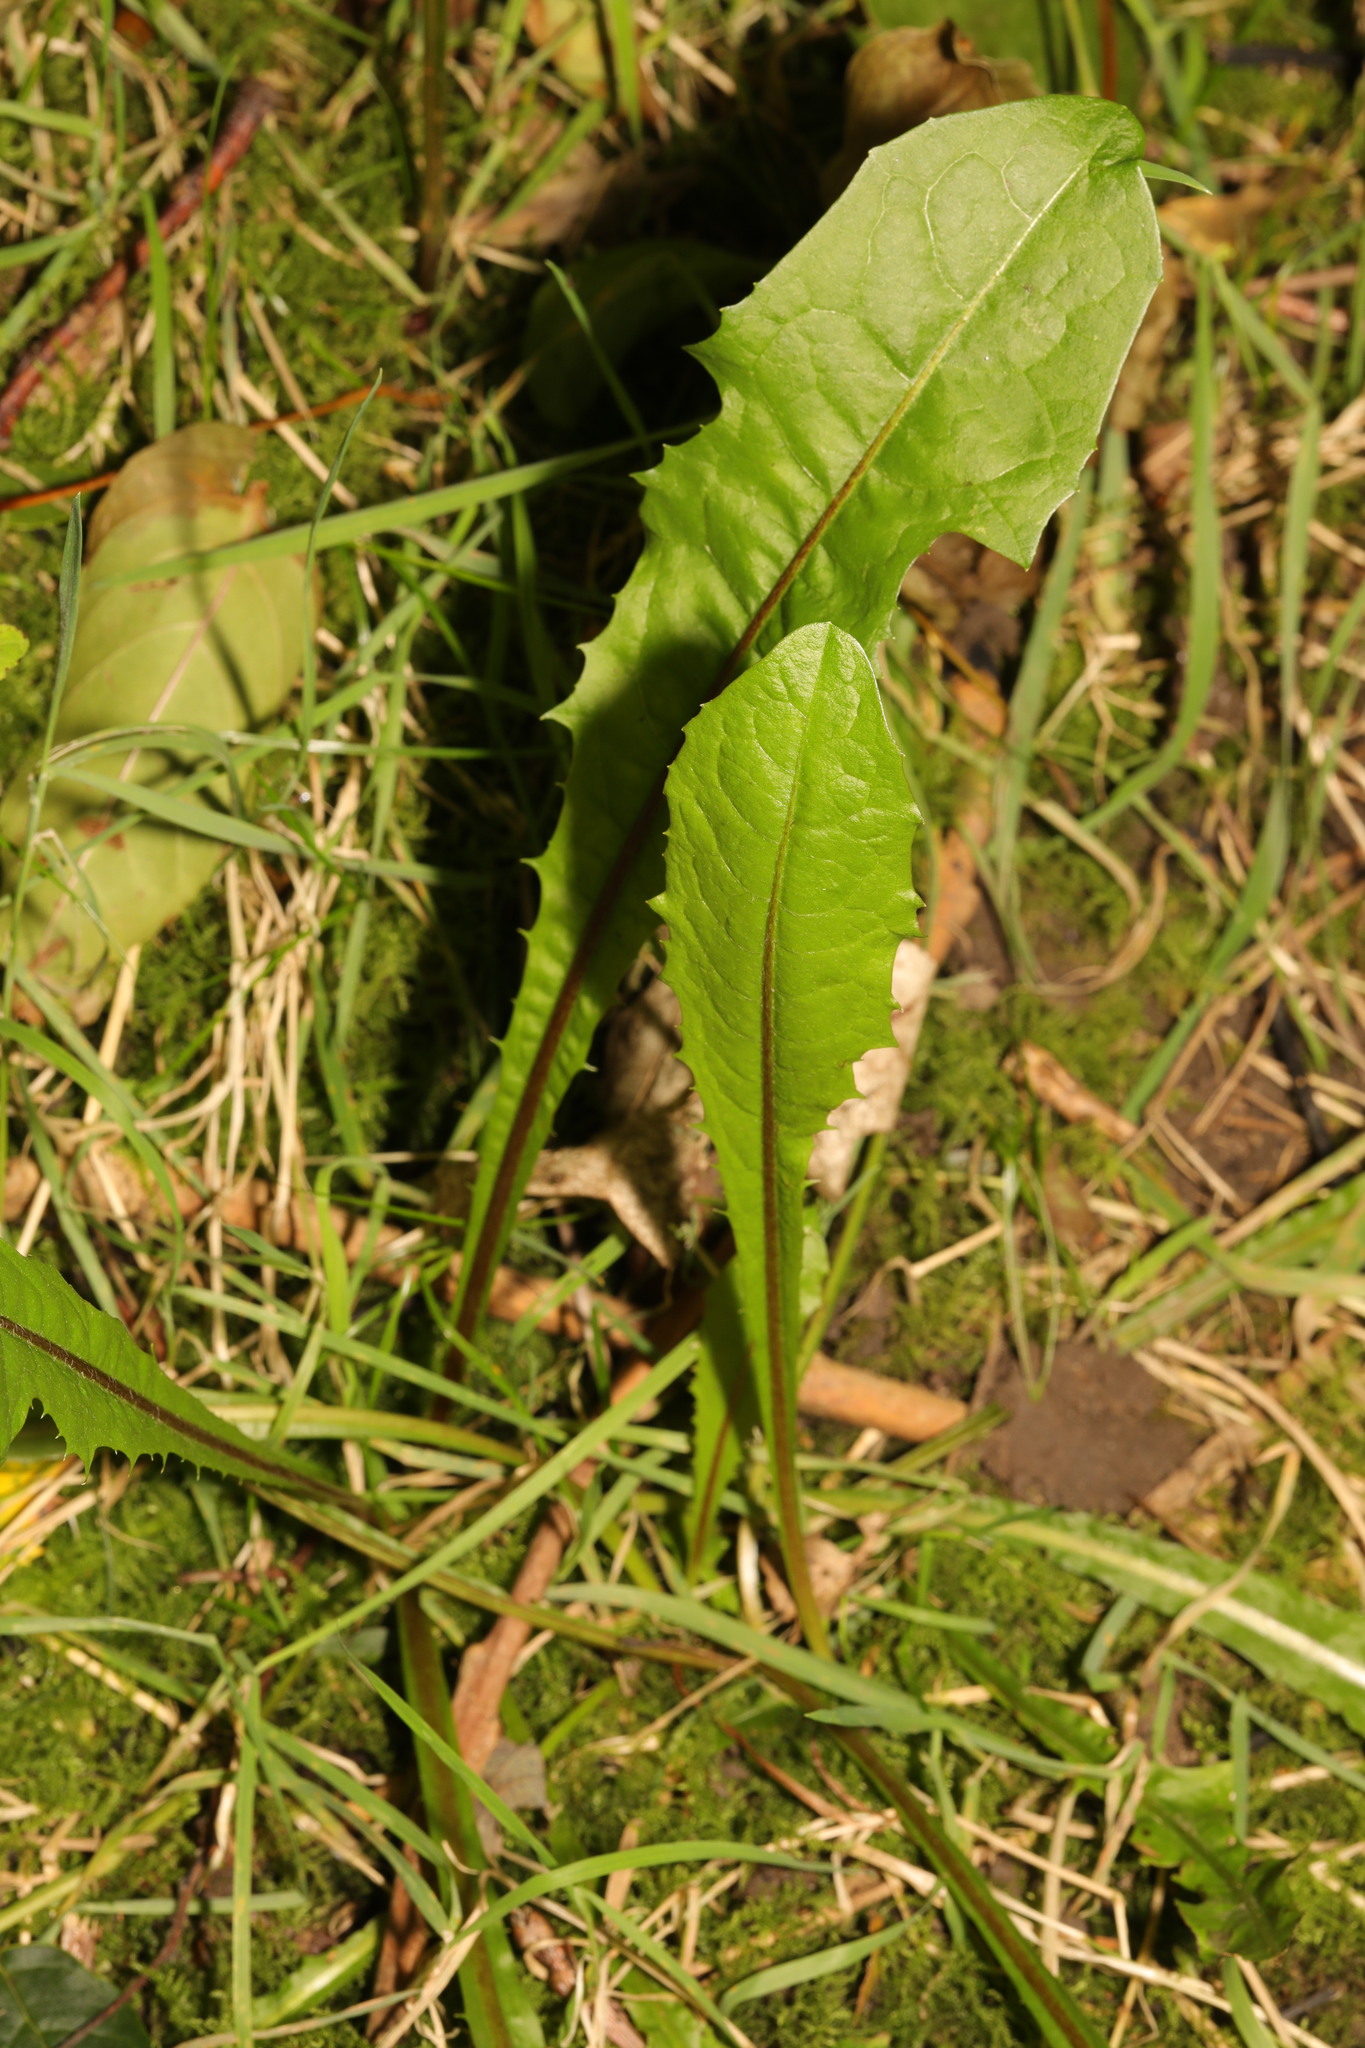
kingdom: Plantae
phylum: Tracheophyta
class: Magnoliopsida
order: Asterales
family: Asteraceae
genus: Taraxacum
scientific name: Taraxacum officinale
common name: Common dandelion
